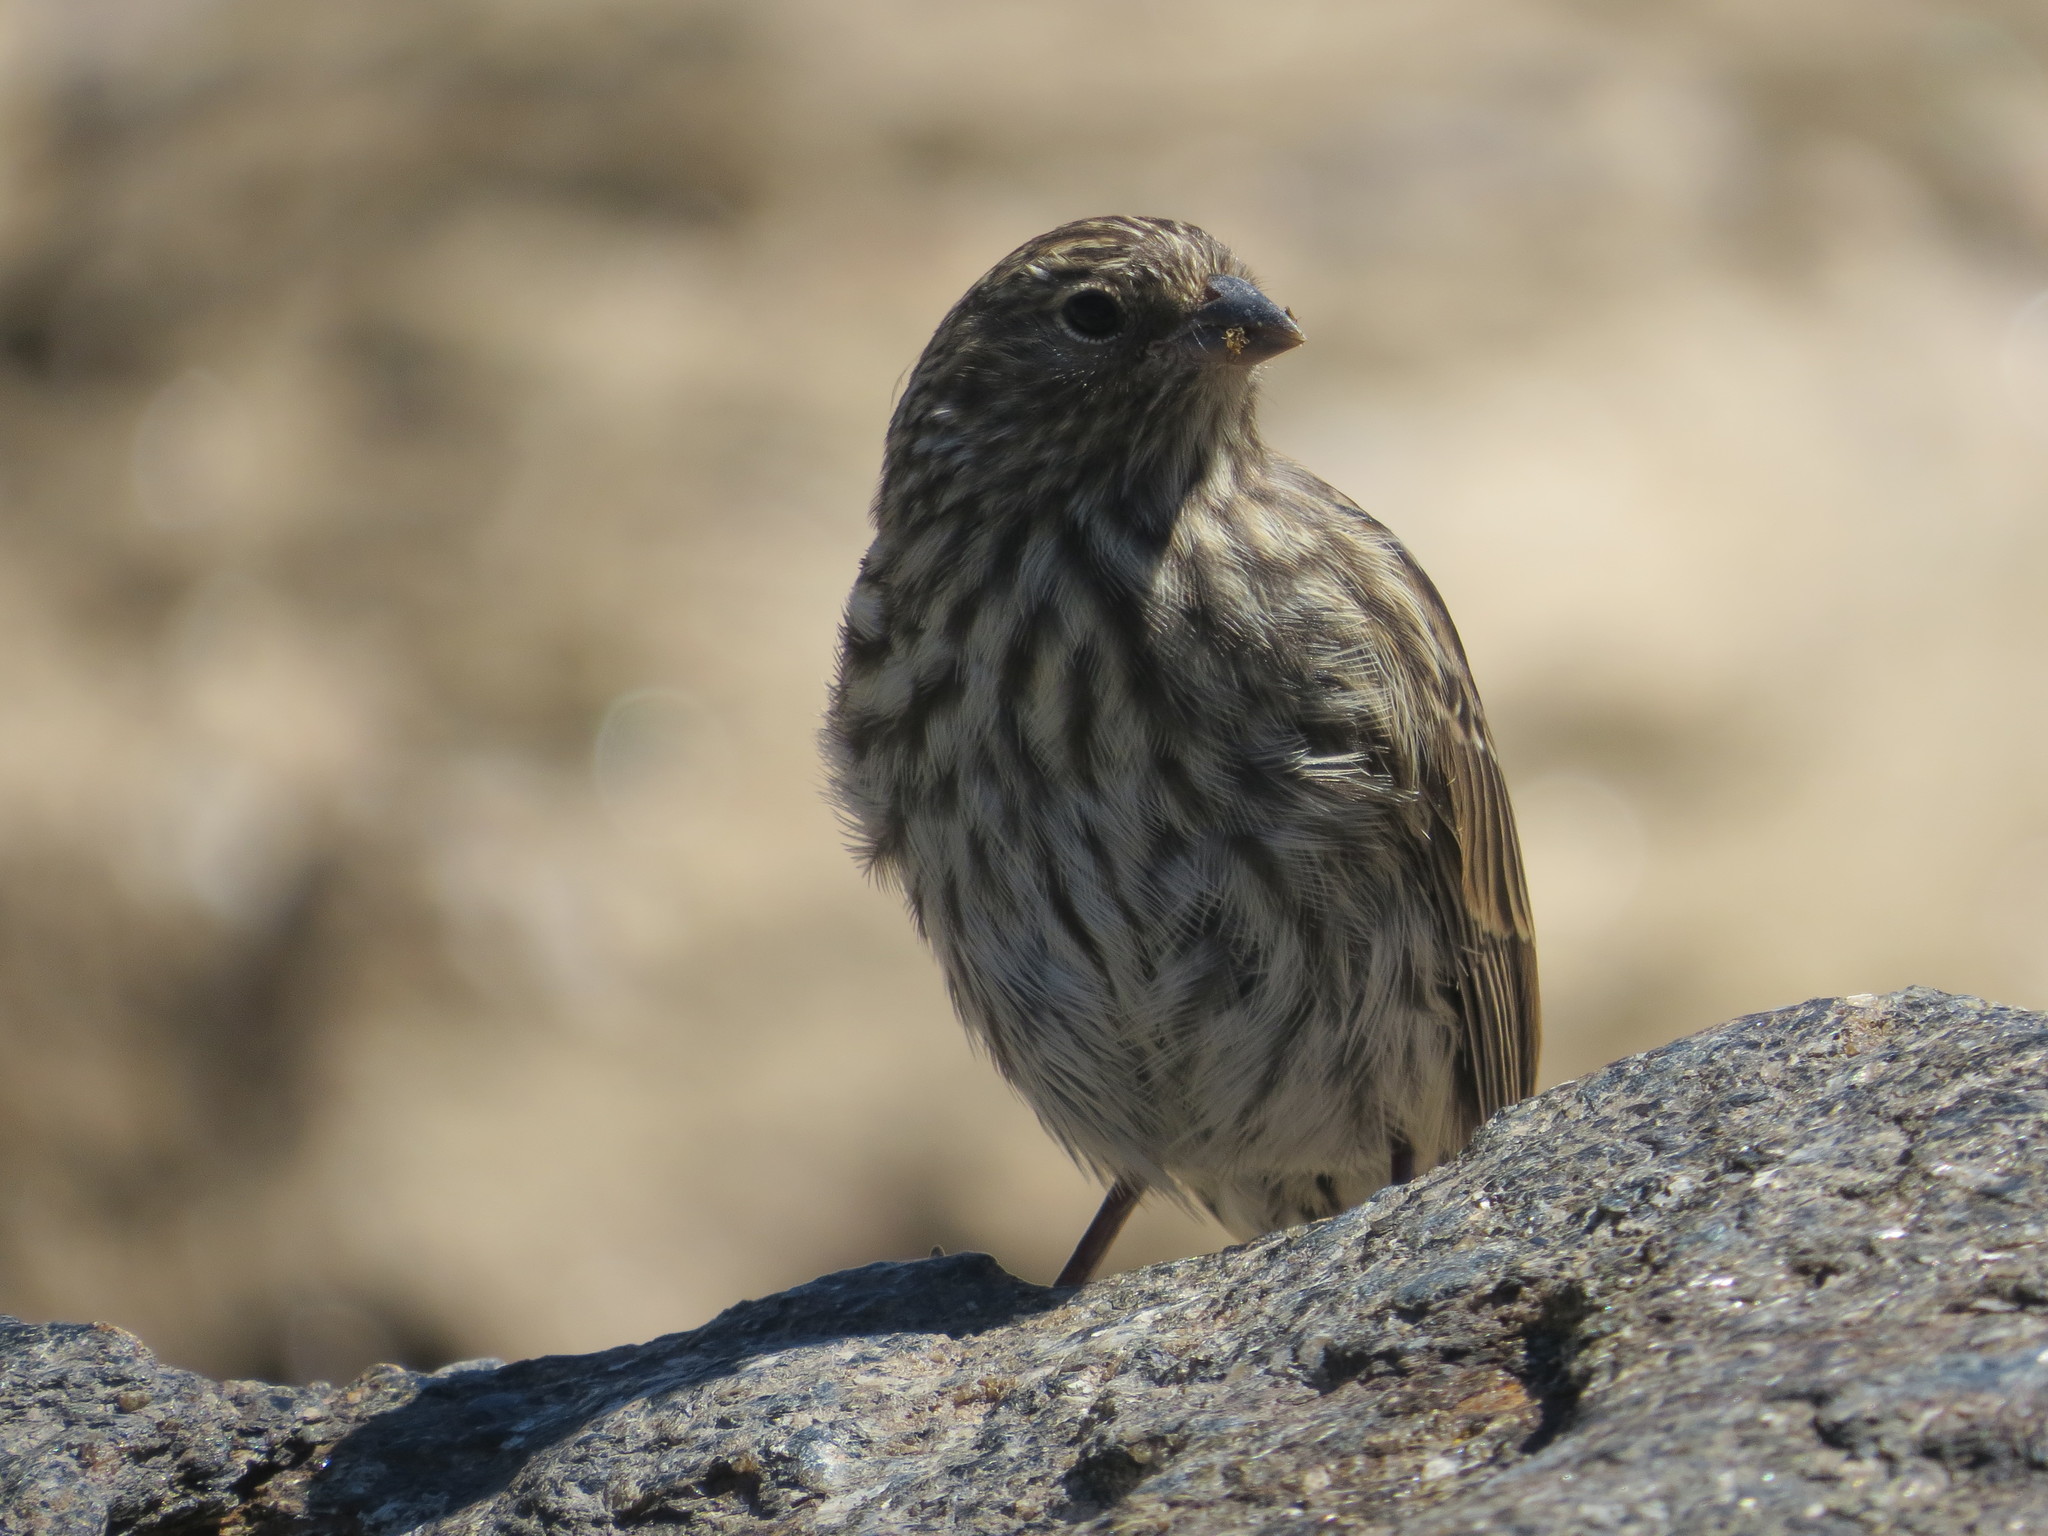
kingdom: Animalia
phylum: Chordata
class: Aves
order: Passeriformes
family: Thraupidae
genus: Geospizopsis
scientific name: Geospizopsis unicolor
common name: Plumbeous sierra-finch
